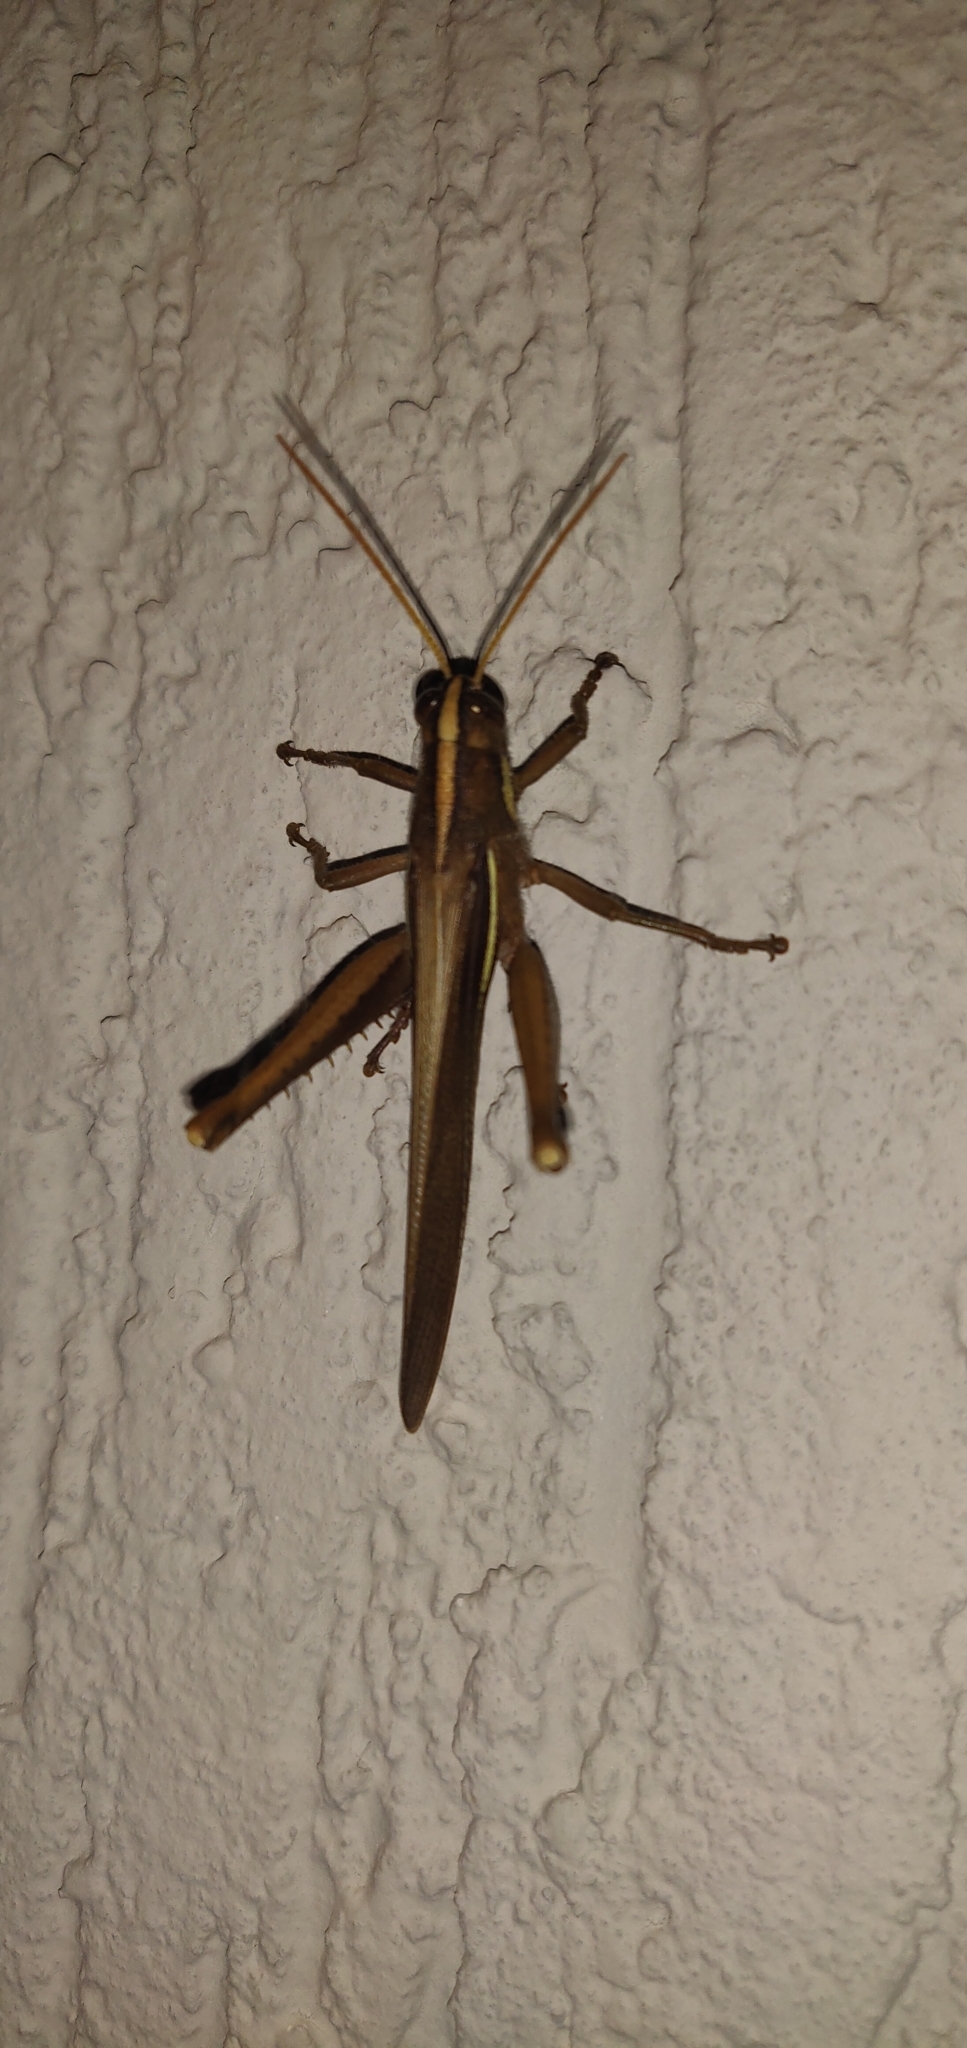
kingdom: Animalia
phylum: Arthropoda
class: Insecta
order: Orthoptera
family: Acrididae
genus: Schistocerca
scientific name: Schistocerca flavofasciata
